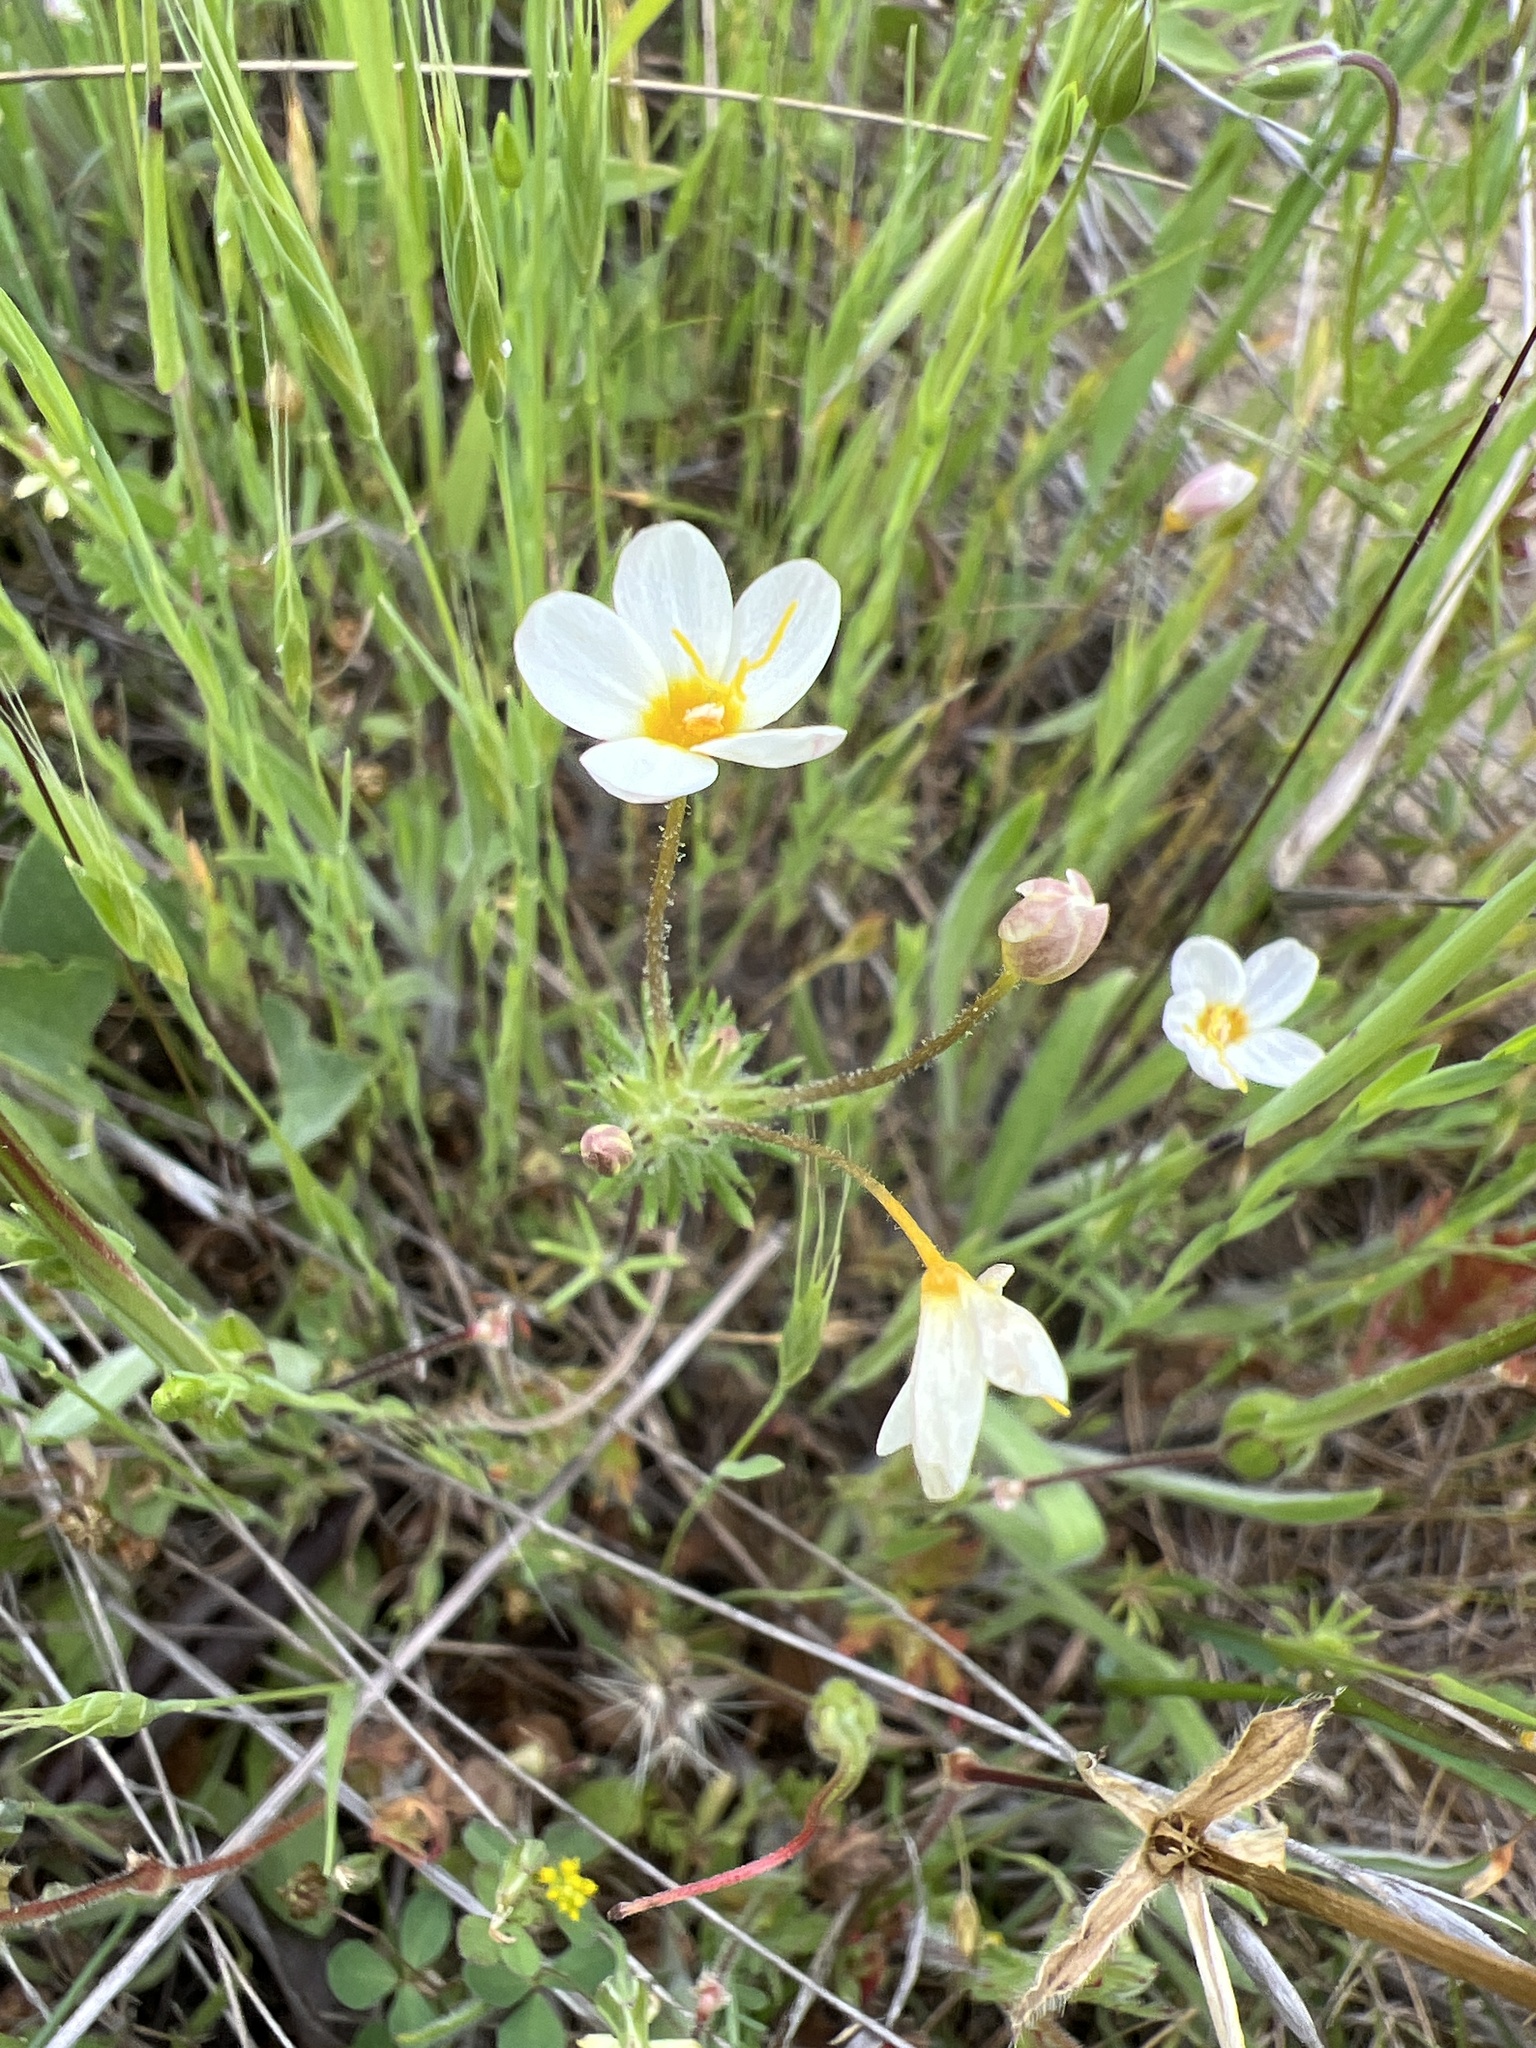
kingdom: Plantae
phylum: Tracheophyta
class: Magnoliopsida
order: Ericales
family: Polemoniaceae
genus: Leptosiphon
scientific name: Leptosiphon parviflorus
